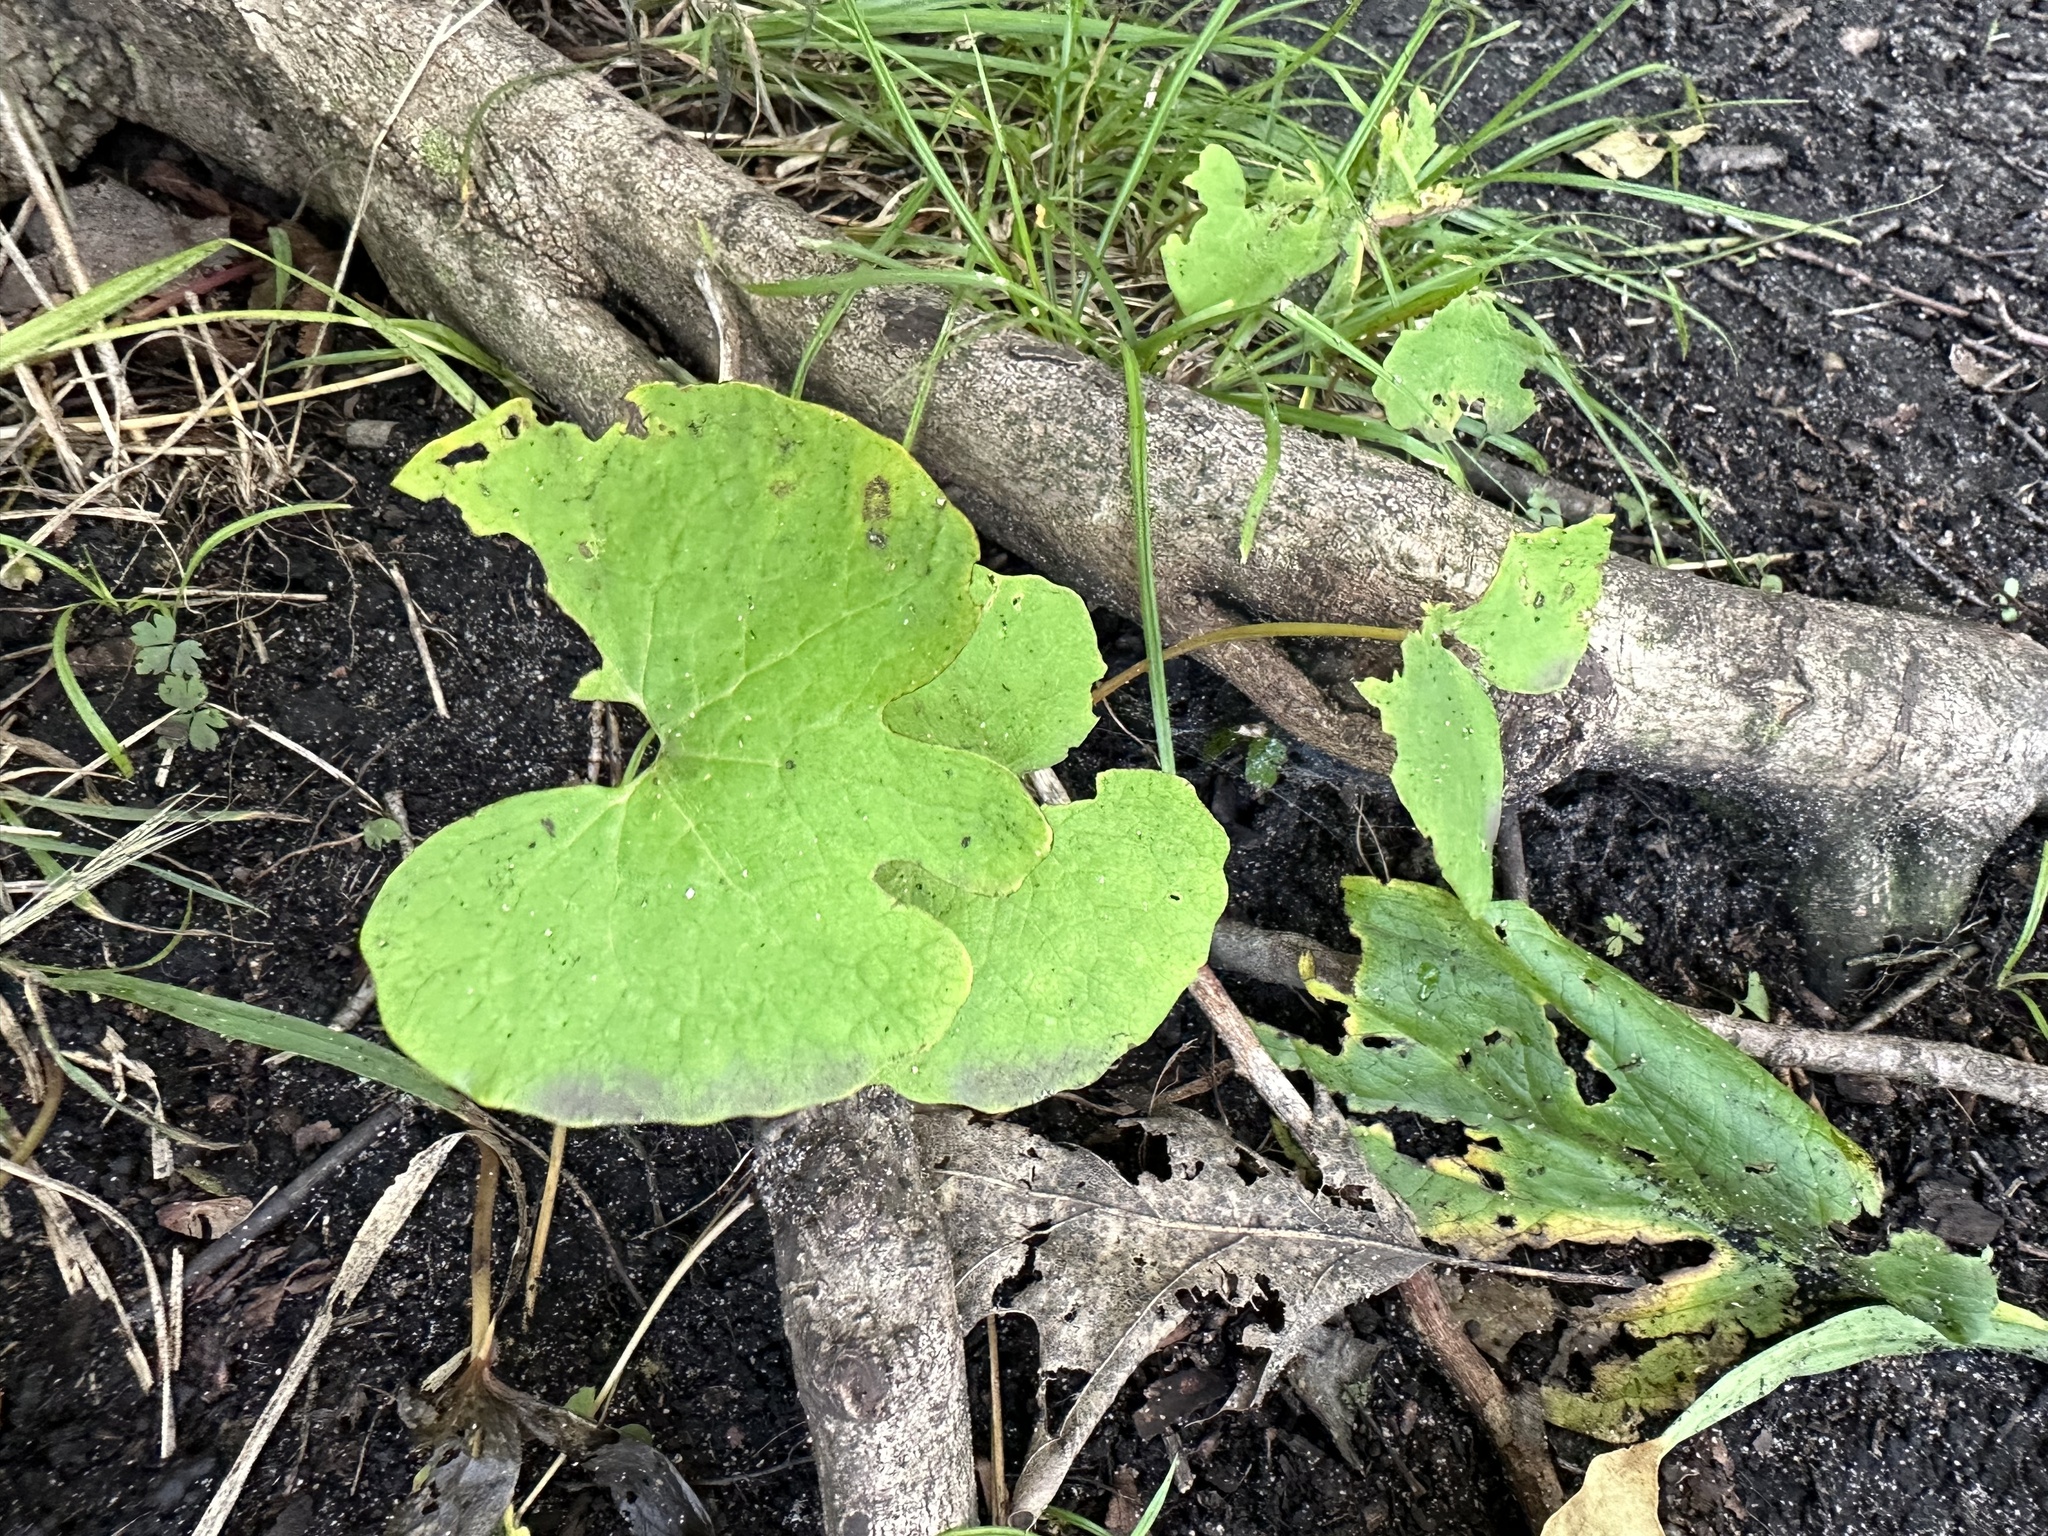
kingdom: Plantae
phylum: Tracheophyta
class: Magnoliopsida
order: Ranunculales
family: Papaveraceae
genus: Sanguinaria
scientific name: Sanguinaria canadensis
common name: Bloodroot
